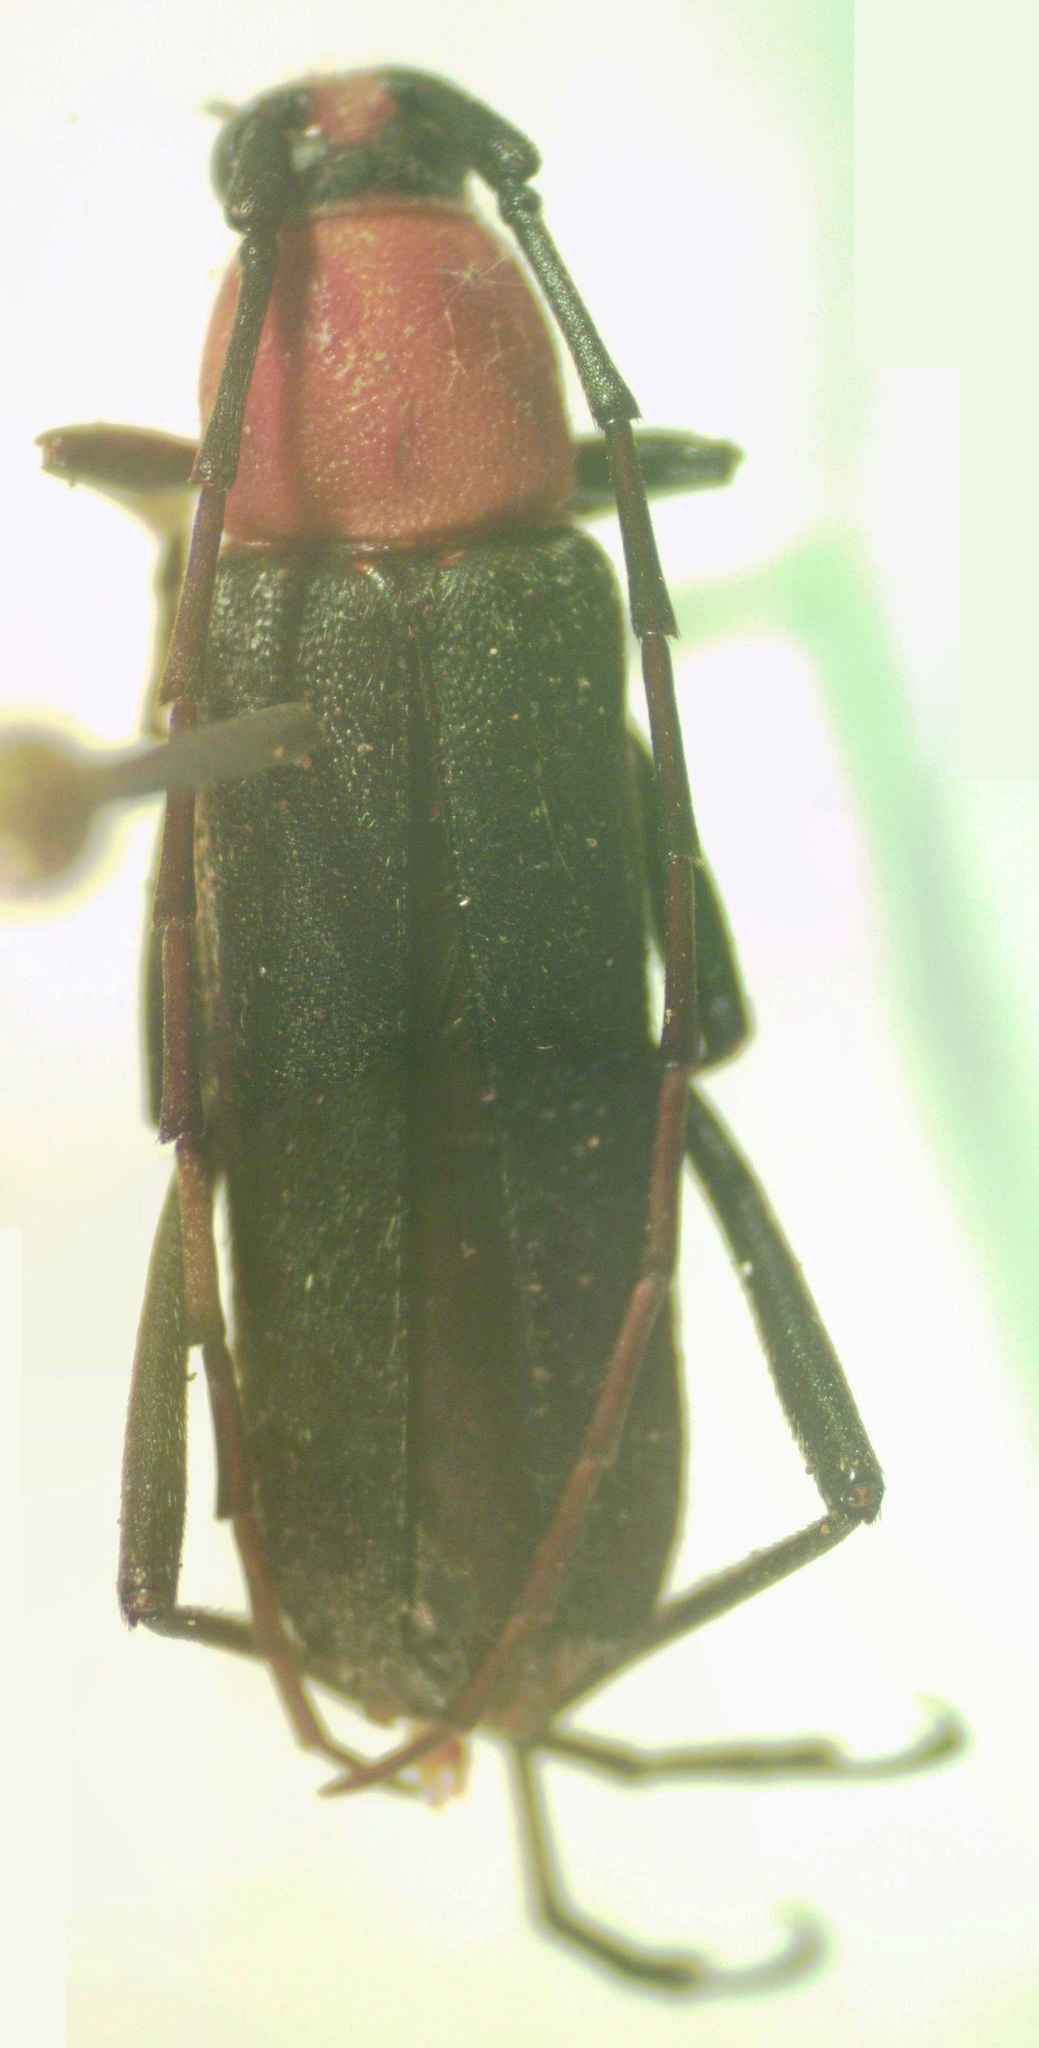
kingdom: Animalia
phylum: Arthropoda
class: Insecta
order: Coleoptera
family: Cerambycidae
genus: Axestoleus
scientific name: Axestoleus meridionalis
